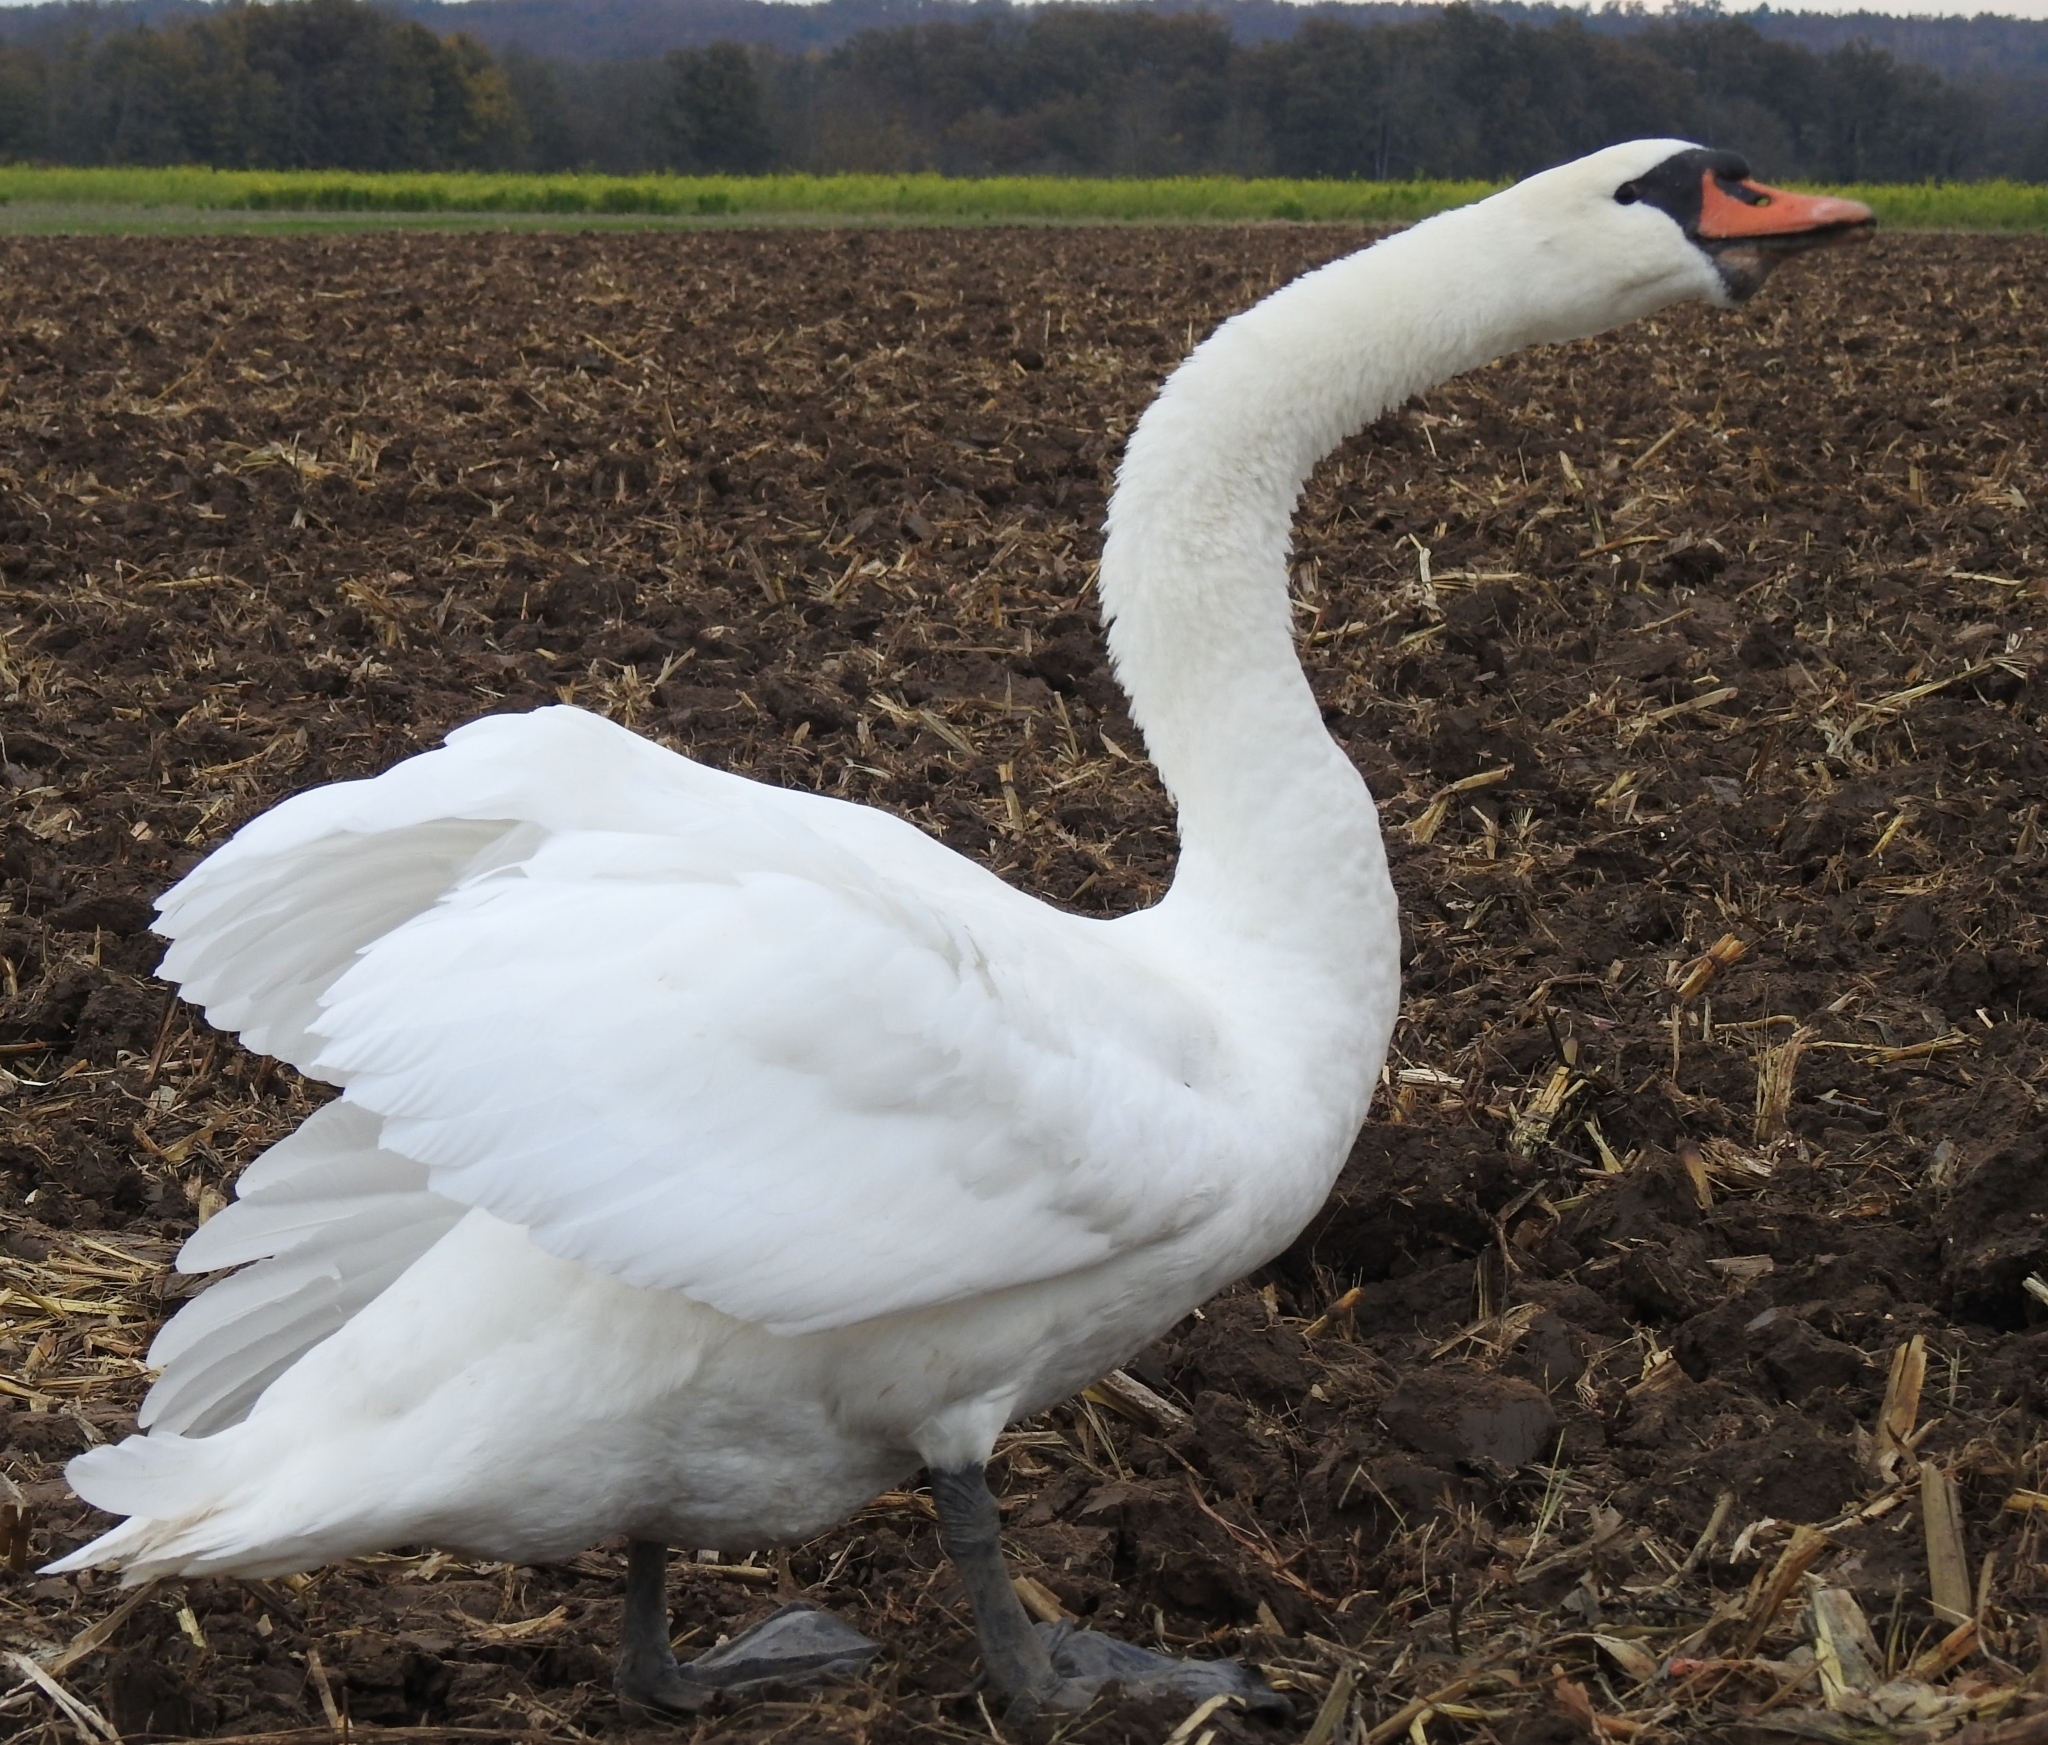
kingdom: Animalia
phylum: Chordata
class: Aves
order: Anseriformes
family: Anatidae
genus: Cygnus
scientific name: Cygnus olor
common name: Mute swan
